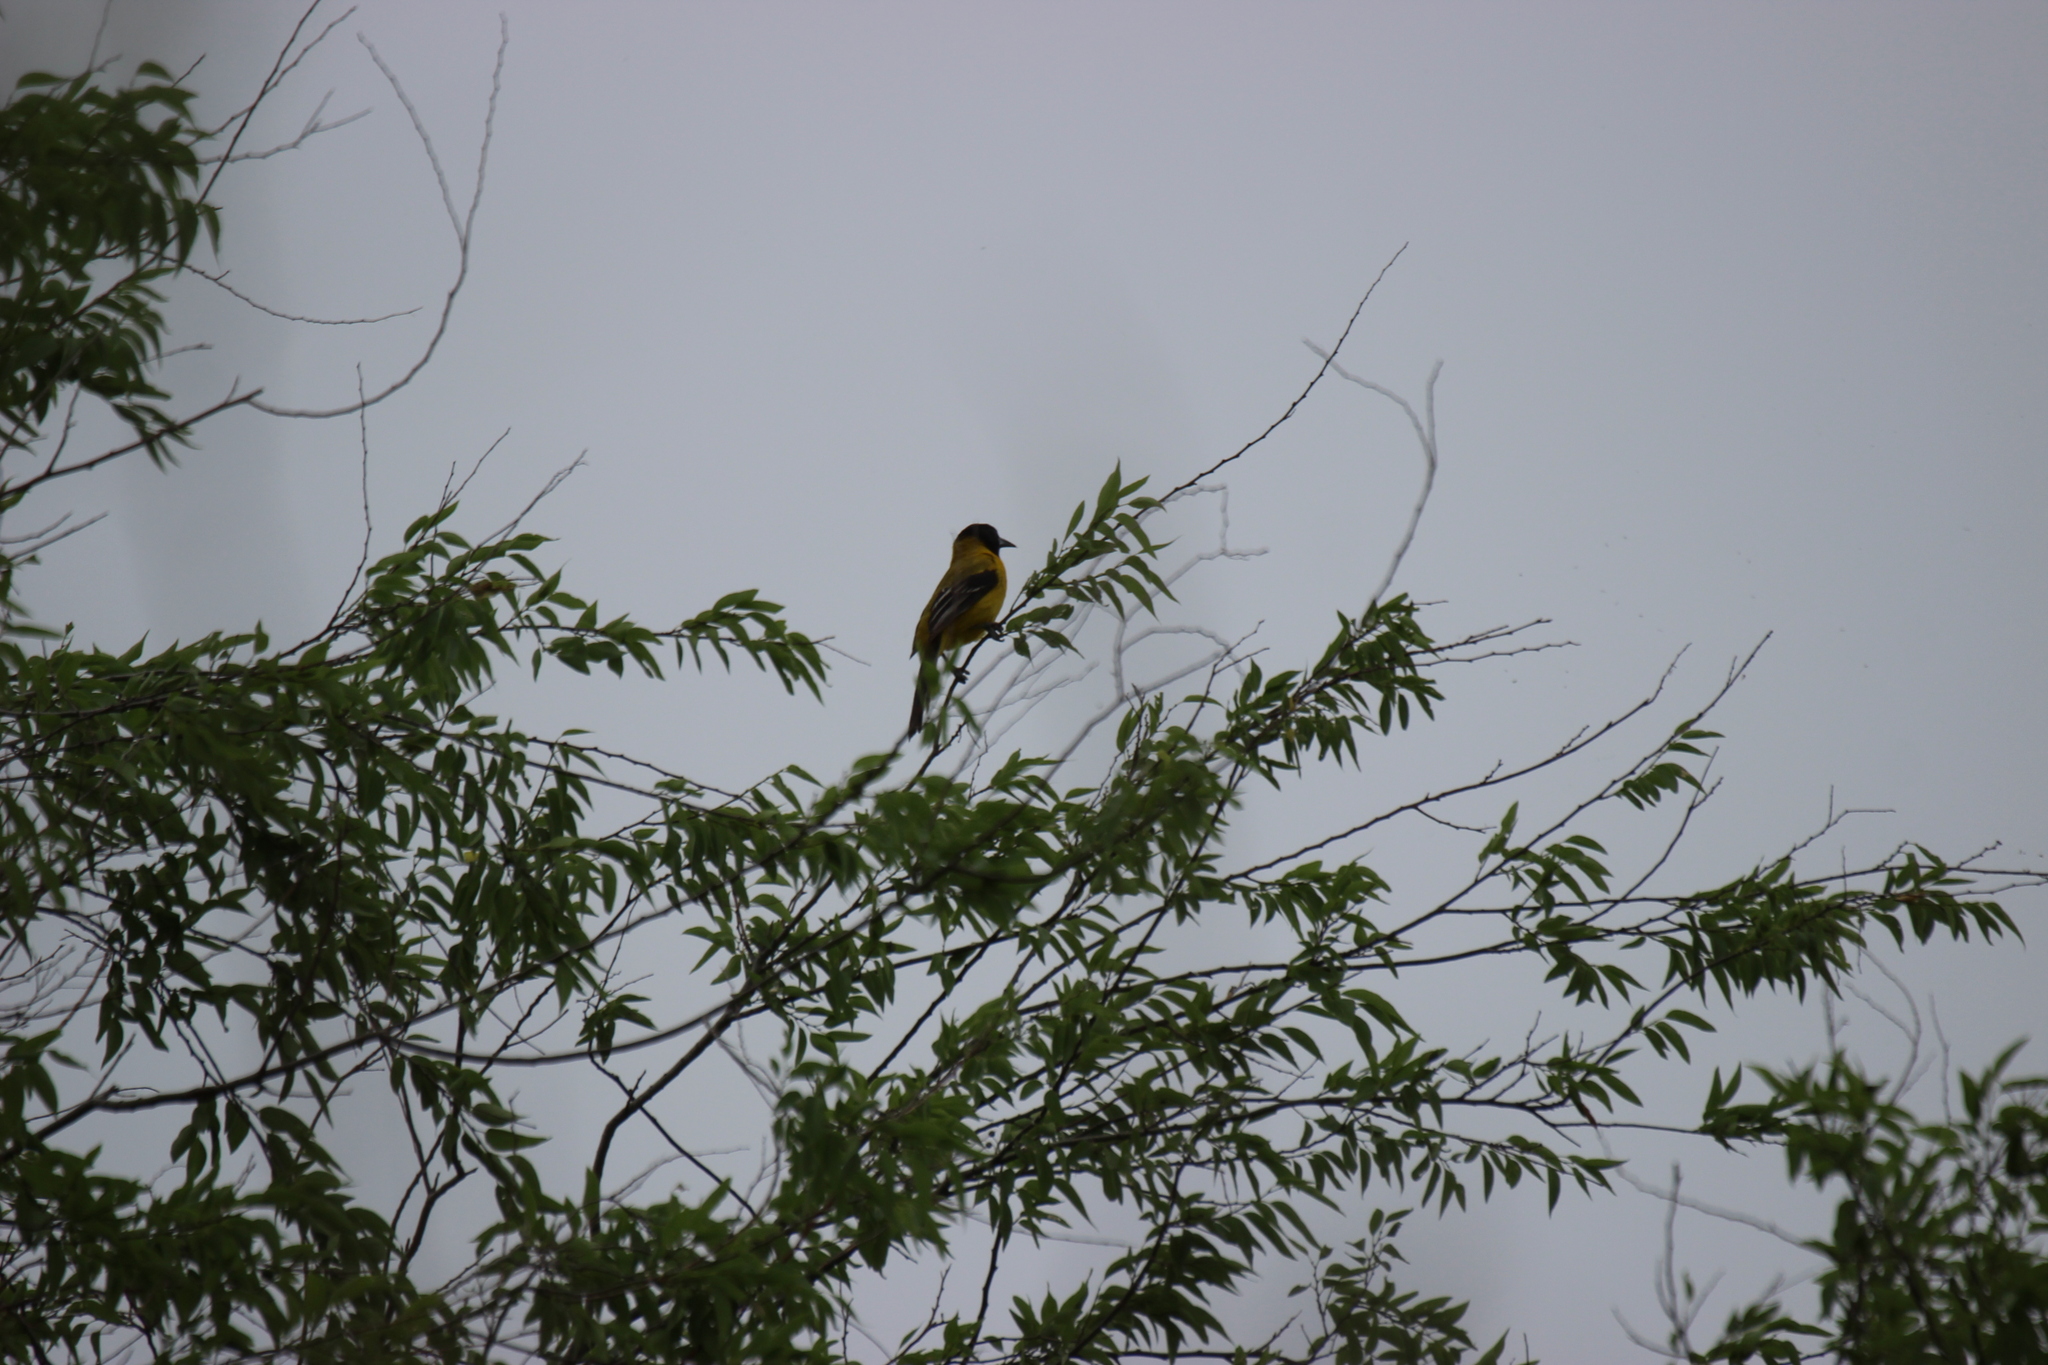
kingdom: Animalia
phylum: Chordata
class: Aves
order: Passeriformes
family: Icteridae
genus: Icterus
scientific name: Icterus graduacauda
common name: Audubon's oriole
